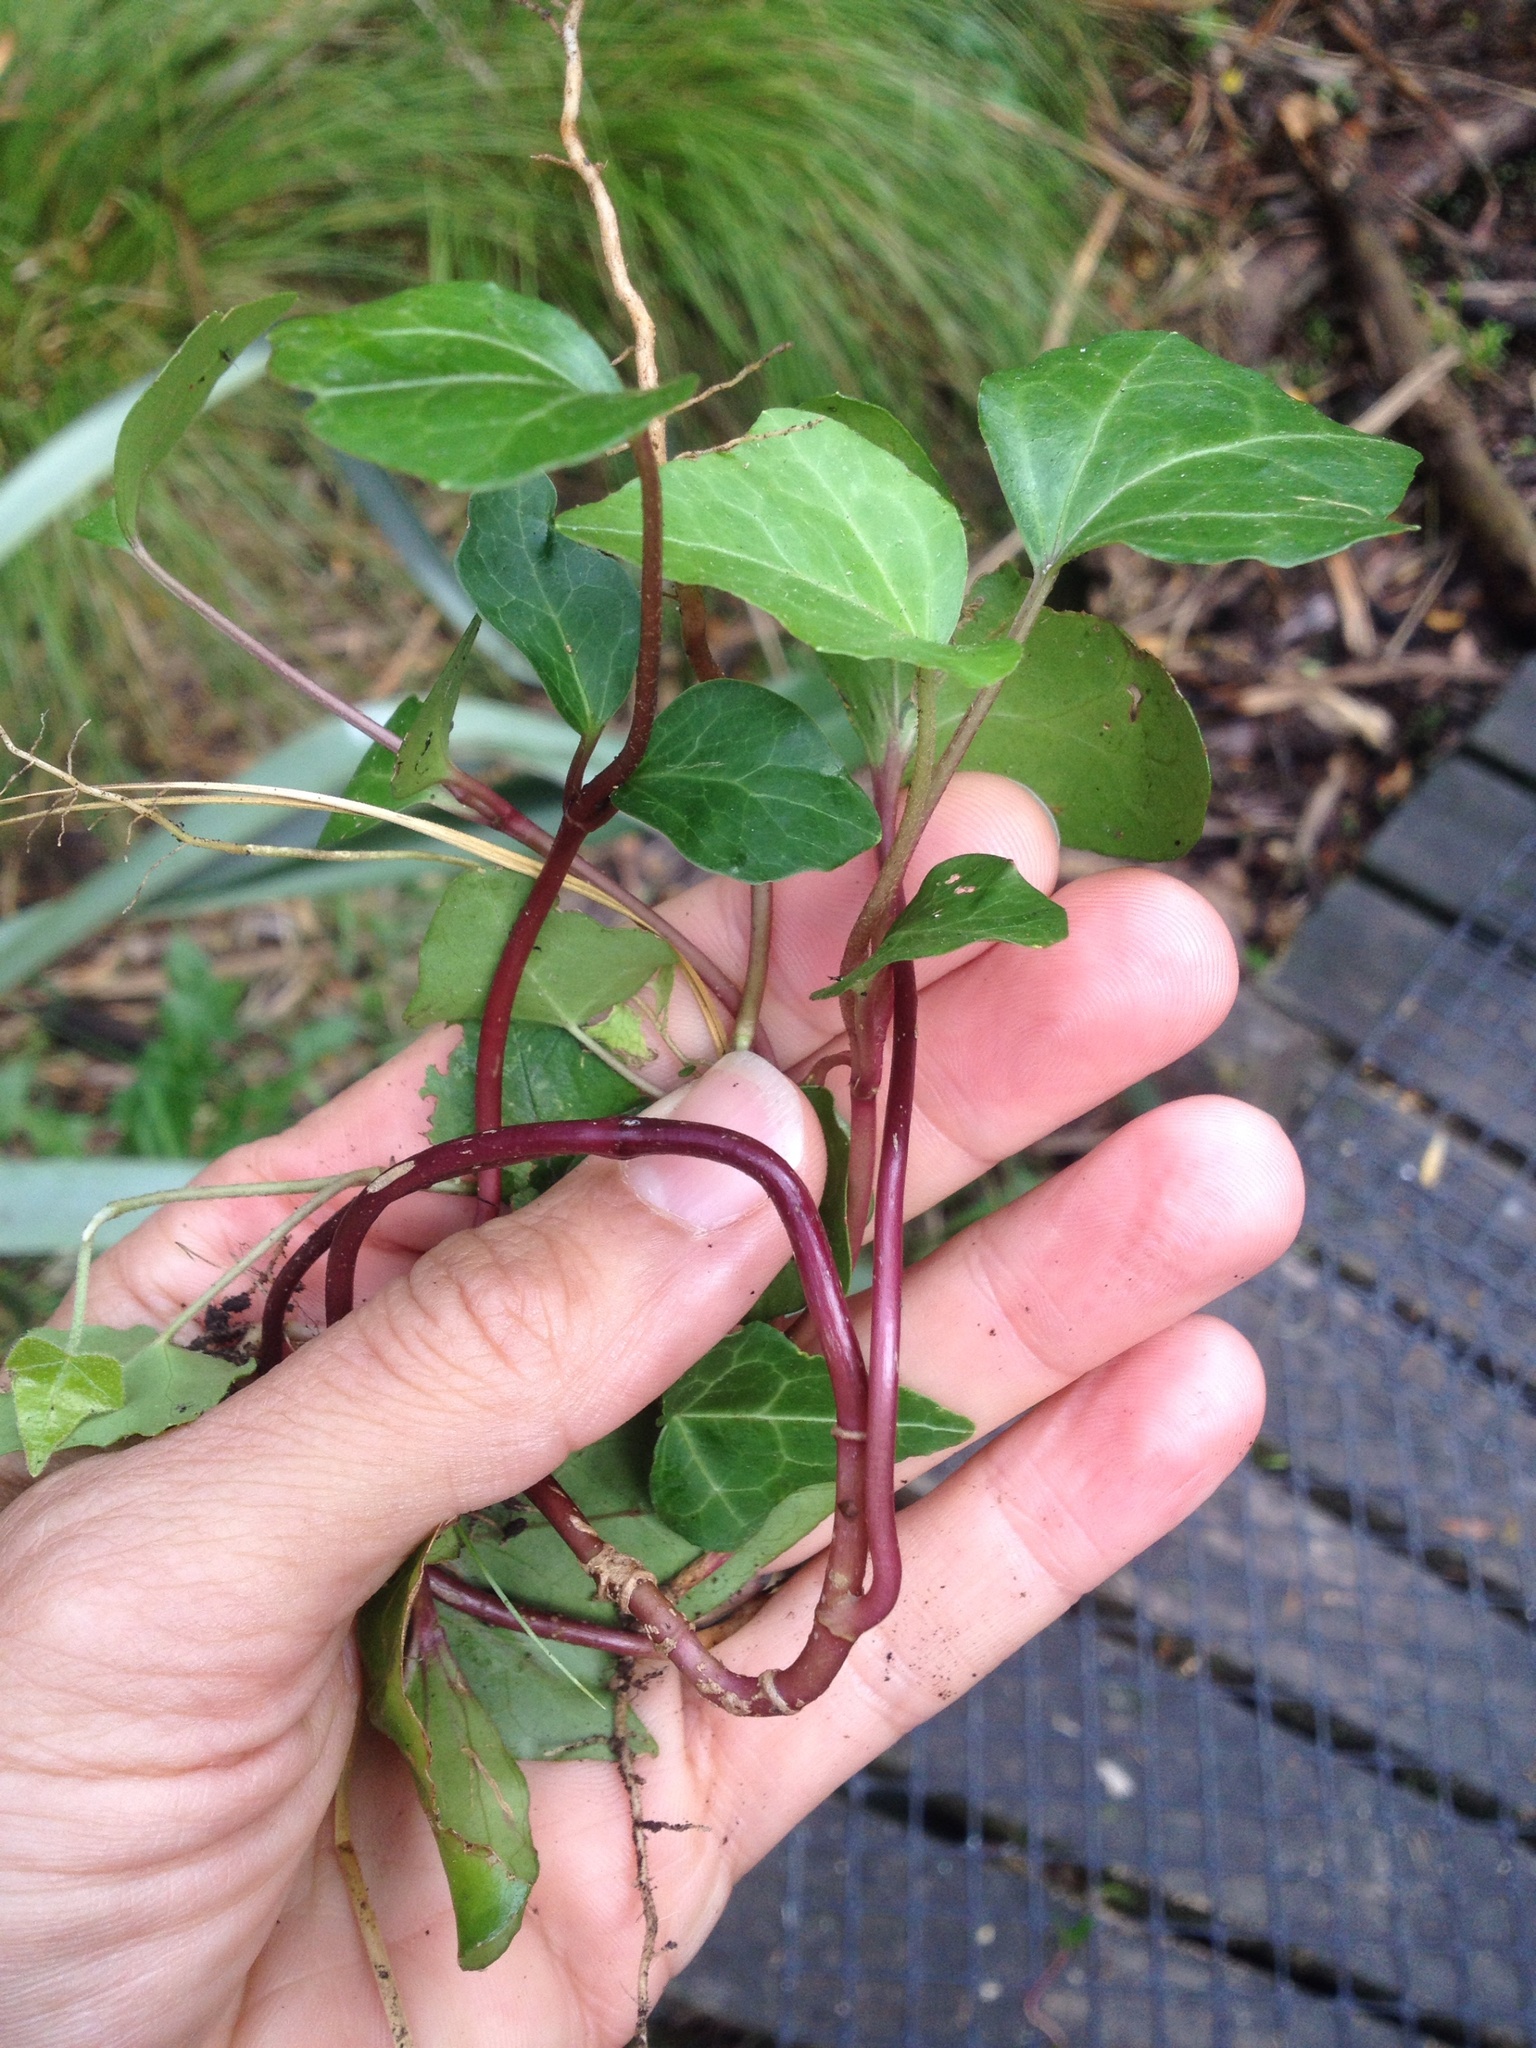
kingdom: Plantae
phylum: Tracheophyta
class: Magnoliopsida
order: Apiales
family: Araliaceae
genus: Hedera
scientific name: Hedera helix
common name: Ivy
